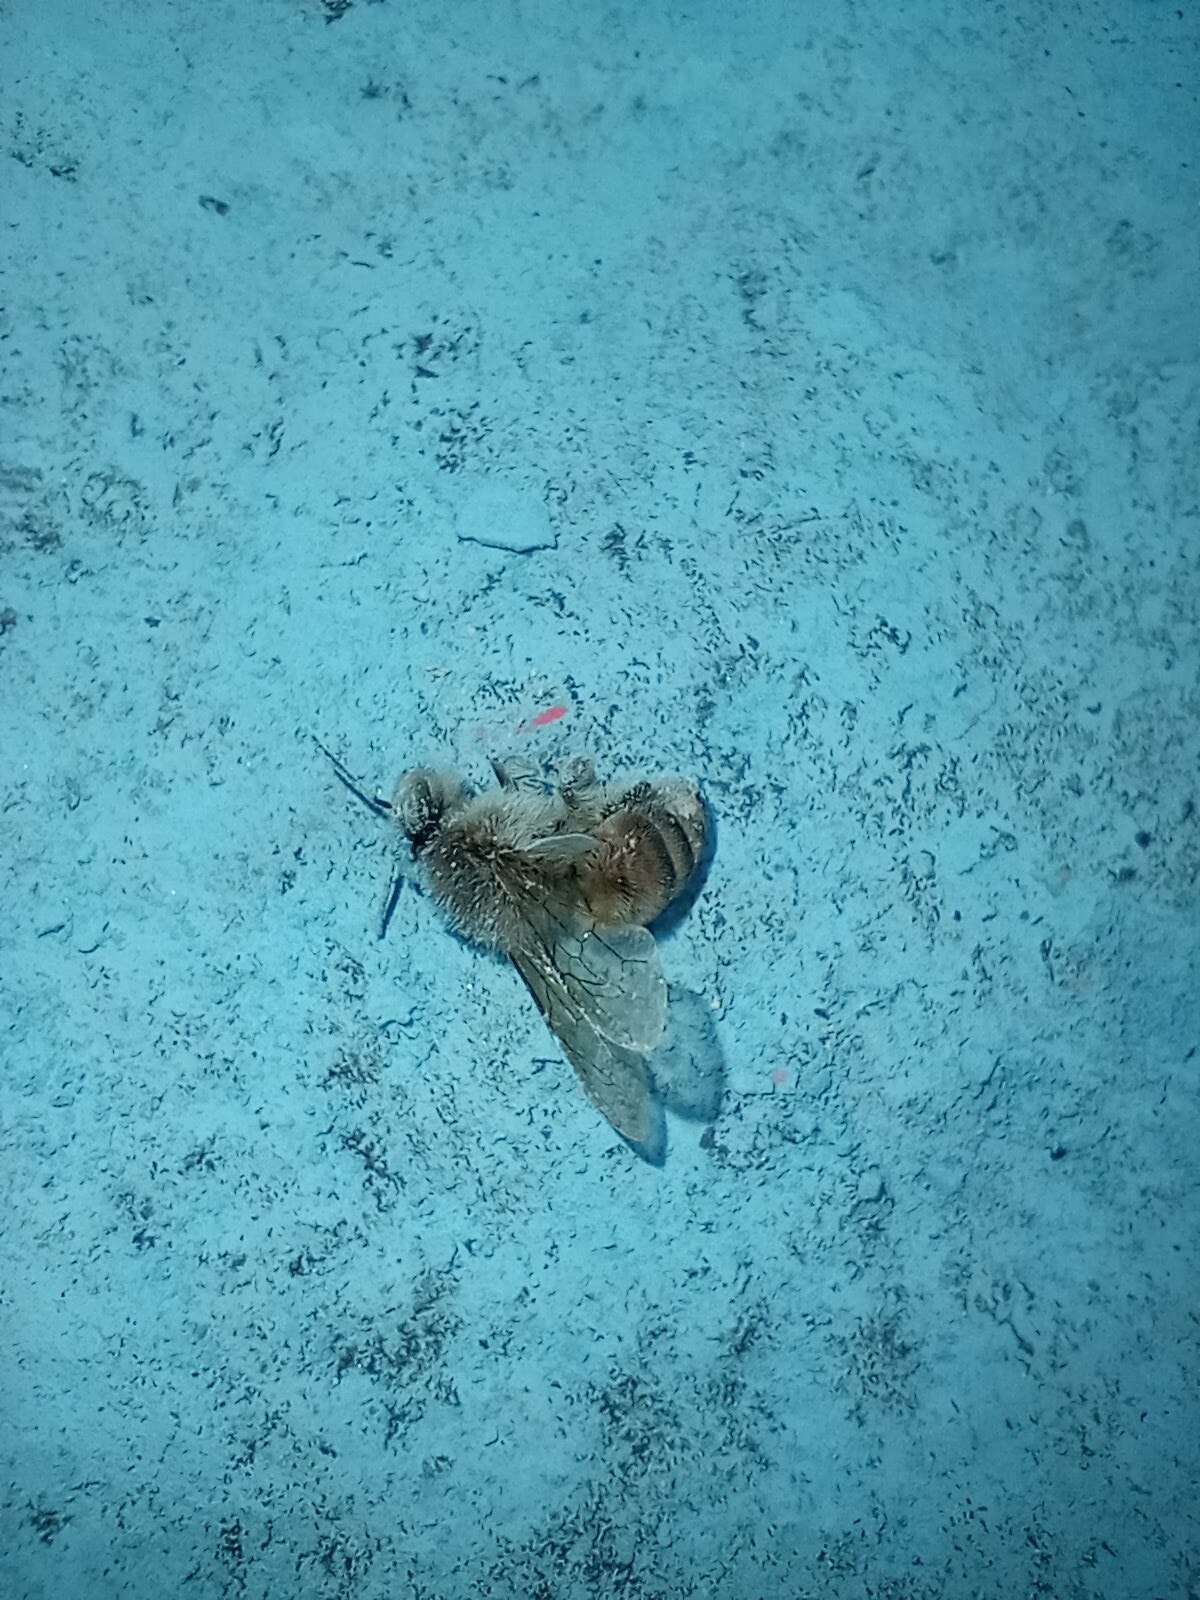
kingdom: Animalia
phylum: Arthropoda
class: Insecta
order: Hymenoptera
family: Apidae
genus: Apis
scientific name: Apis mellifera
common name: Honey bee
